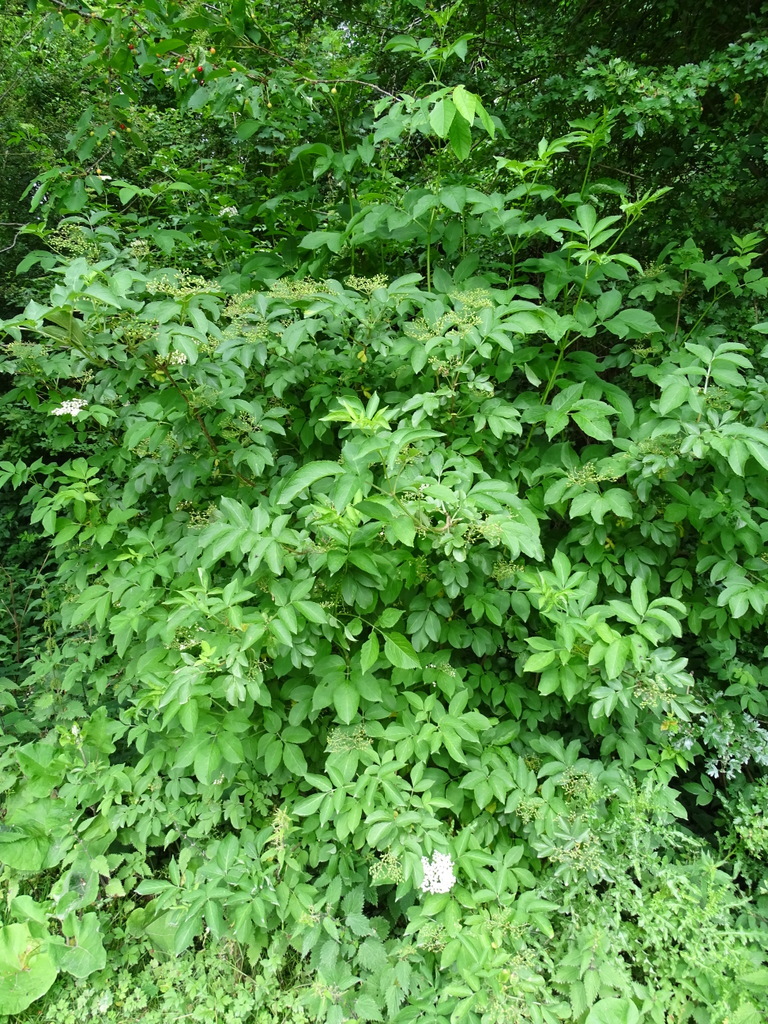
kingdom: Plantae
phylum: Tracheophyta
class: Magnoliopsida
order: Dipsacales
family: Viburnaceae
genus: Sambucus
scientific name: Sambucus nigra
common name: Elder
